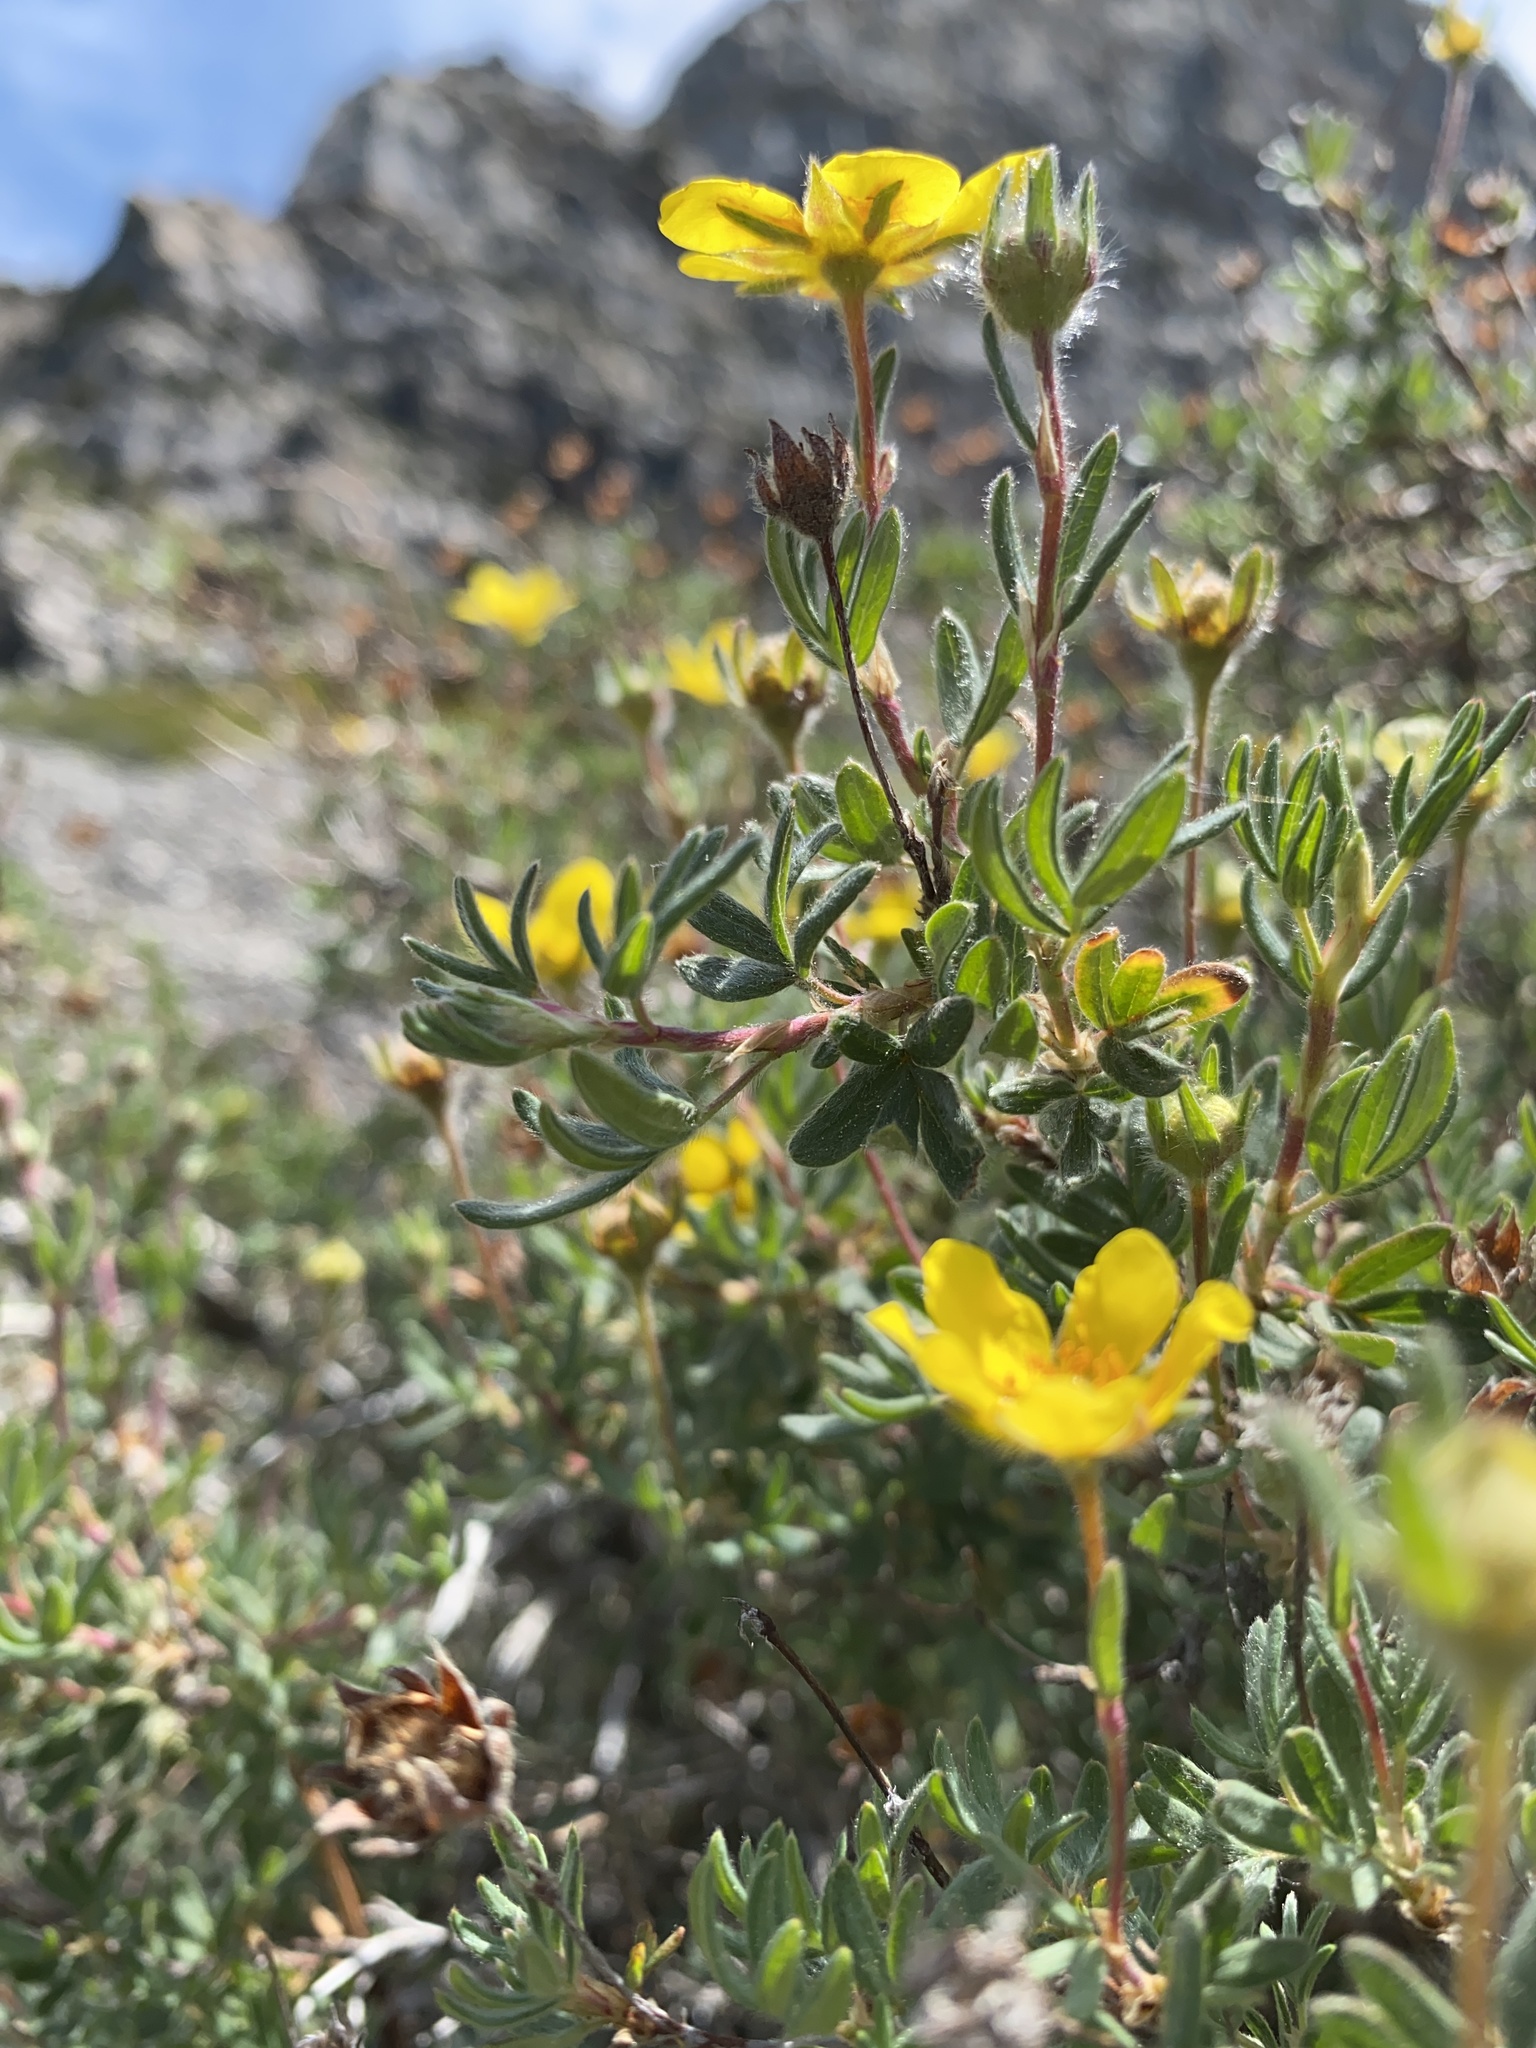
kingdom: Plantae
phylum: Tracheophyta
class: Magnoliopsida
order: Rosales
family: Rosaceae
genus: Dasiphora
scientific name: Dasiphora fruticosa
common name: Shrubby cinquefoil
